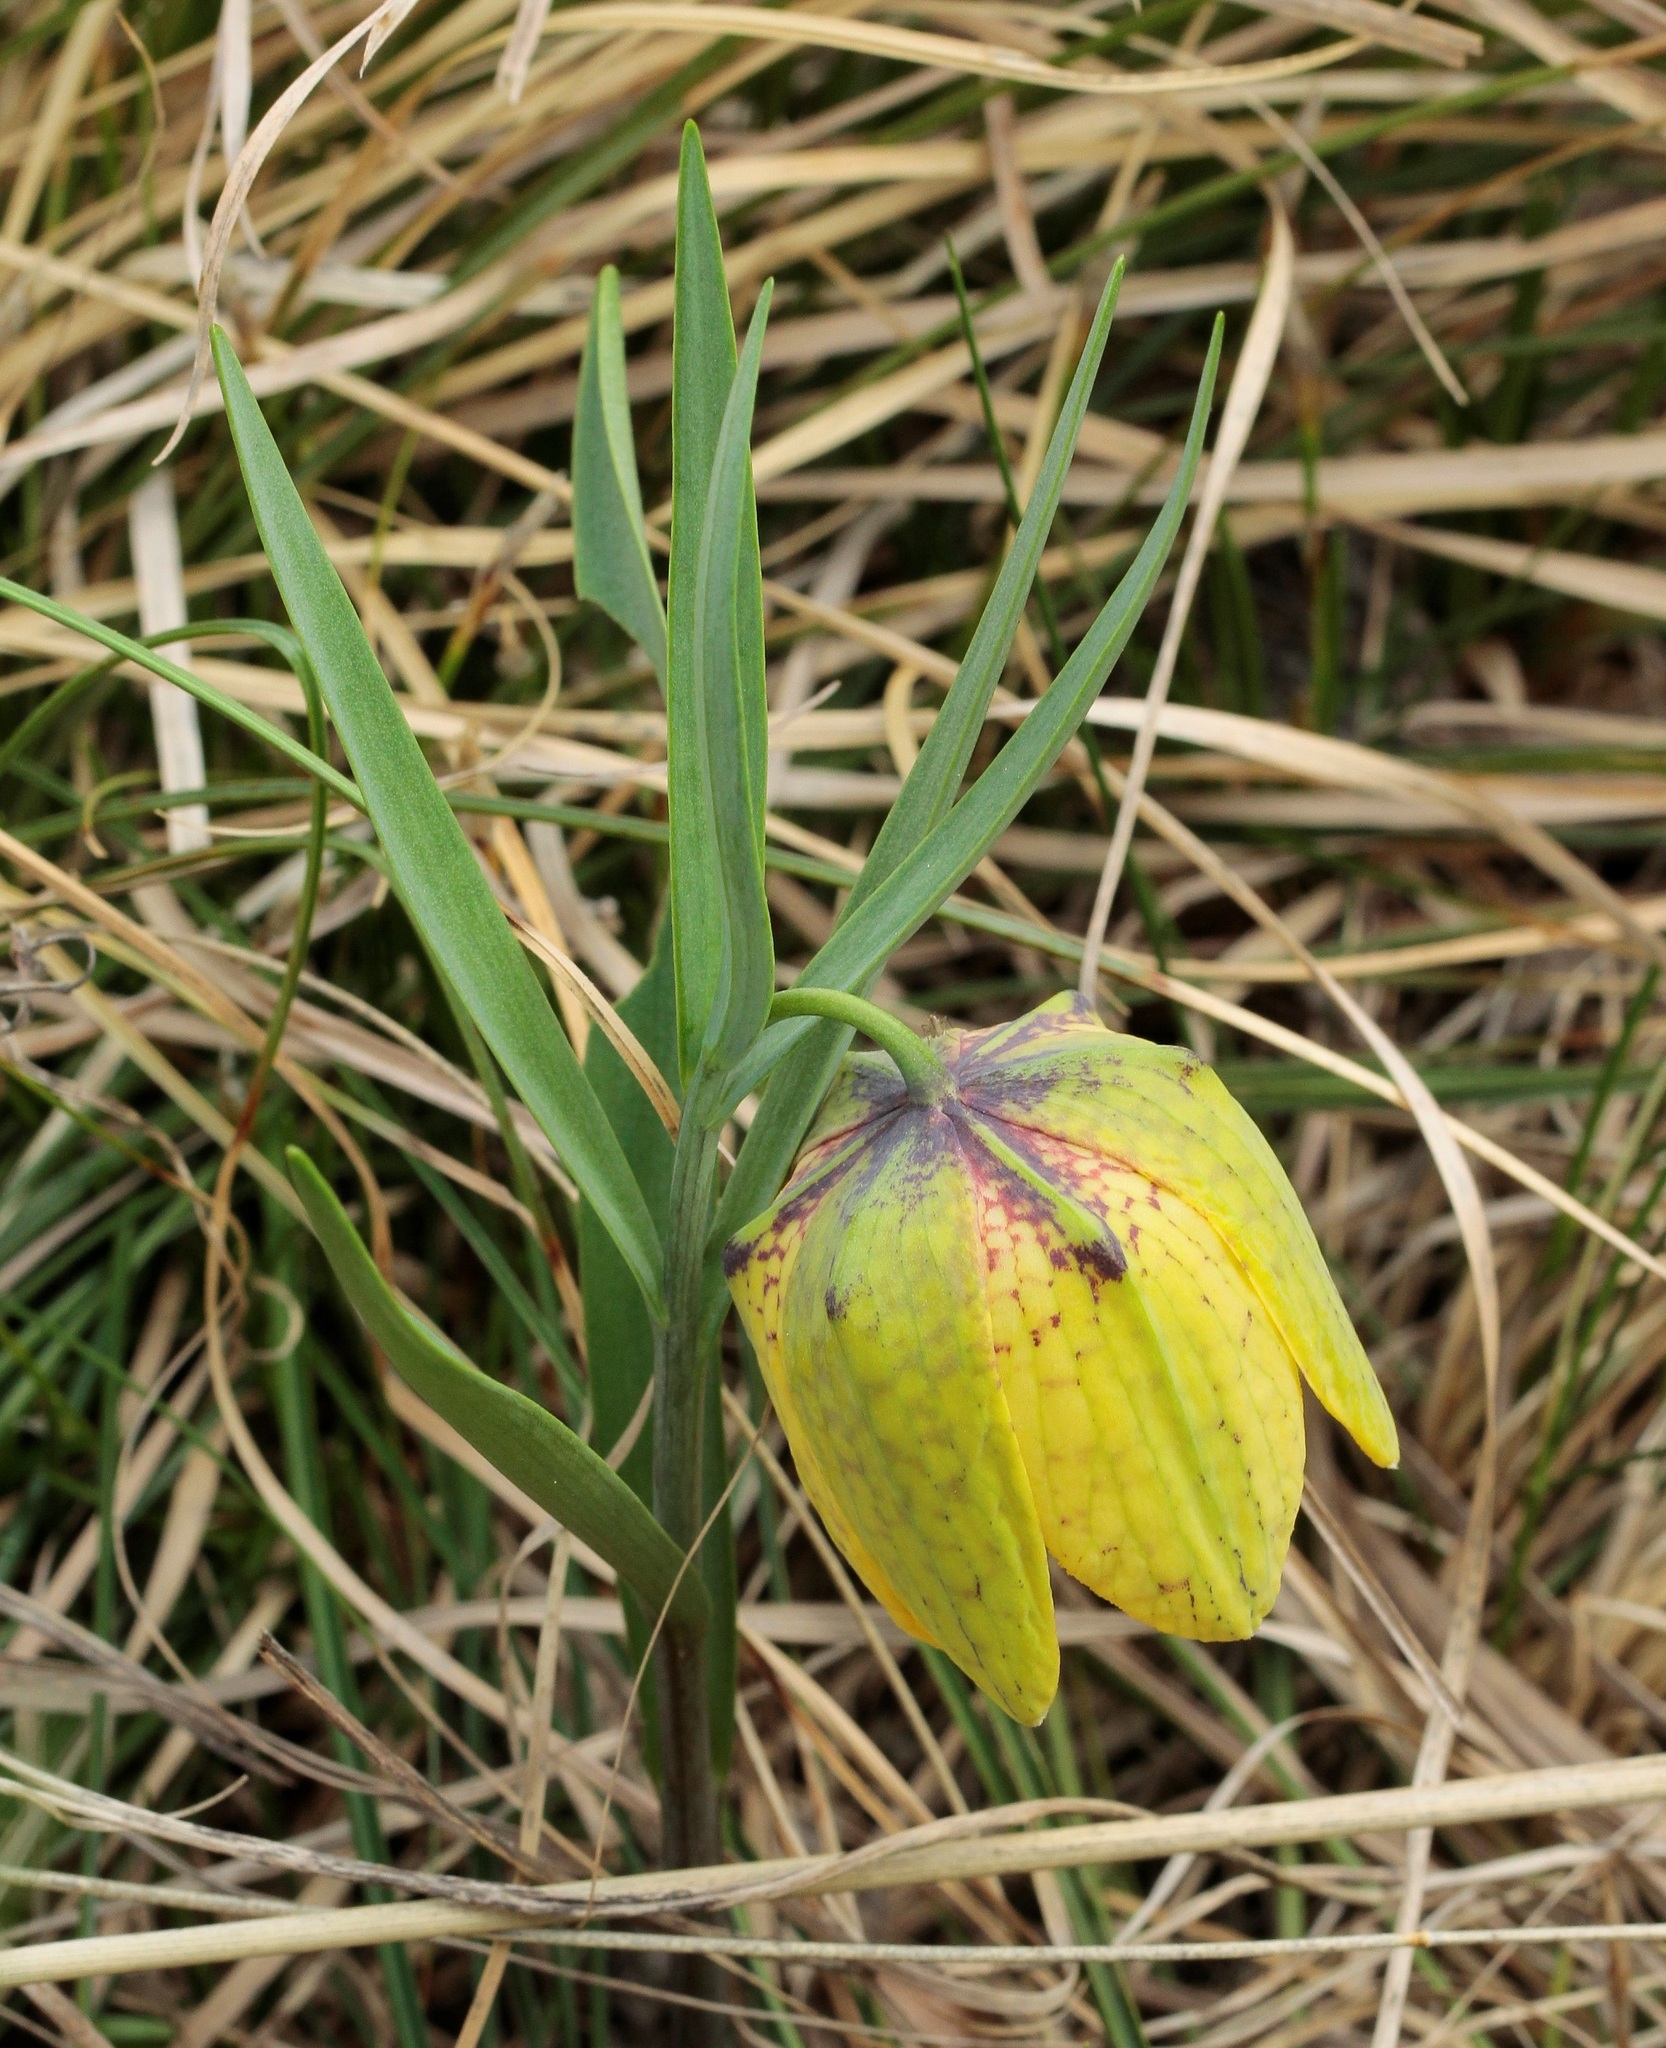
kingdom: Plantae
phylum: Tracheophyta
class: Liliopsida
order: Liliales
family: Liliaceae
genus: Fritillaria
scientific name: Fritillaria collina
